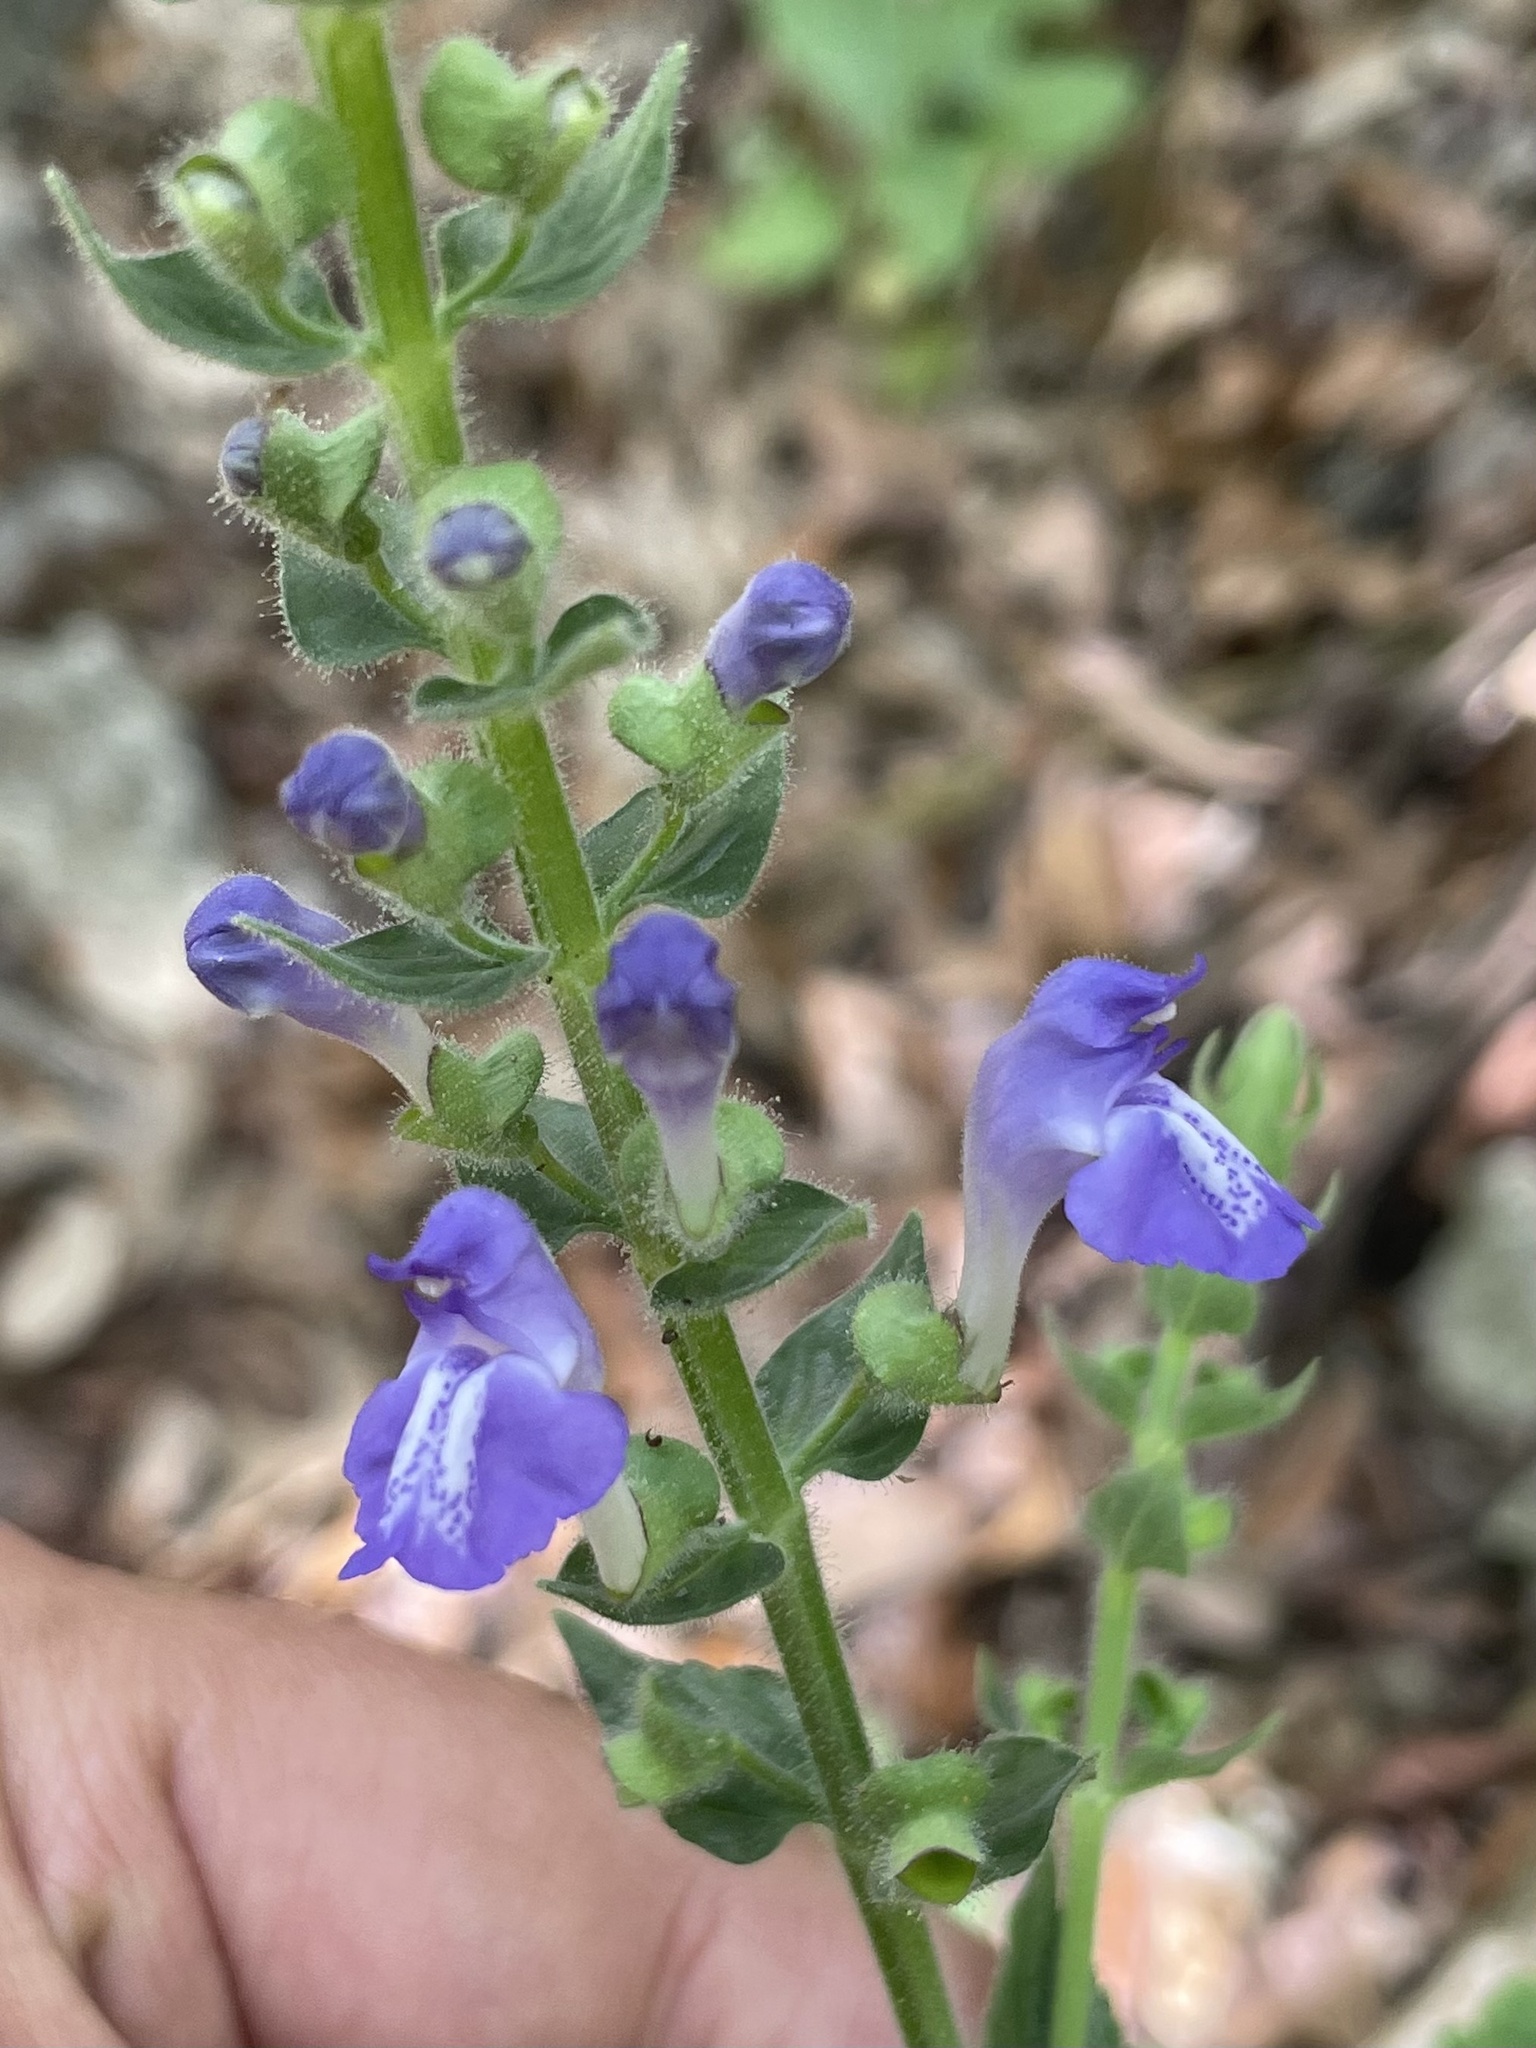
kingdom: Plantae
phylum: Tracheophyta
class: Magnoliopsida
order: Lamiales
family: Lamiaceae
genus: Scutellaria
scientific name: Scutellaria ovata
